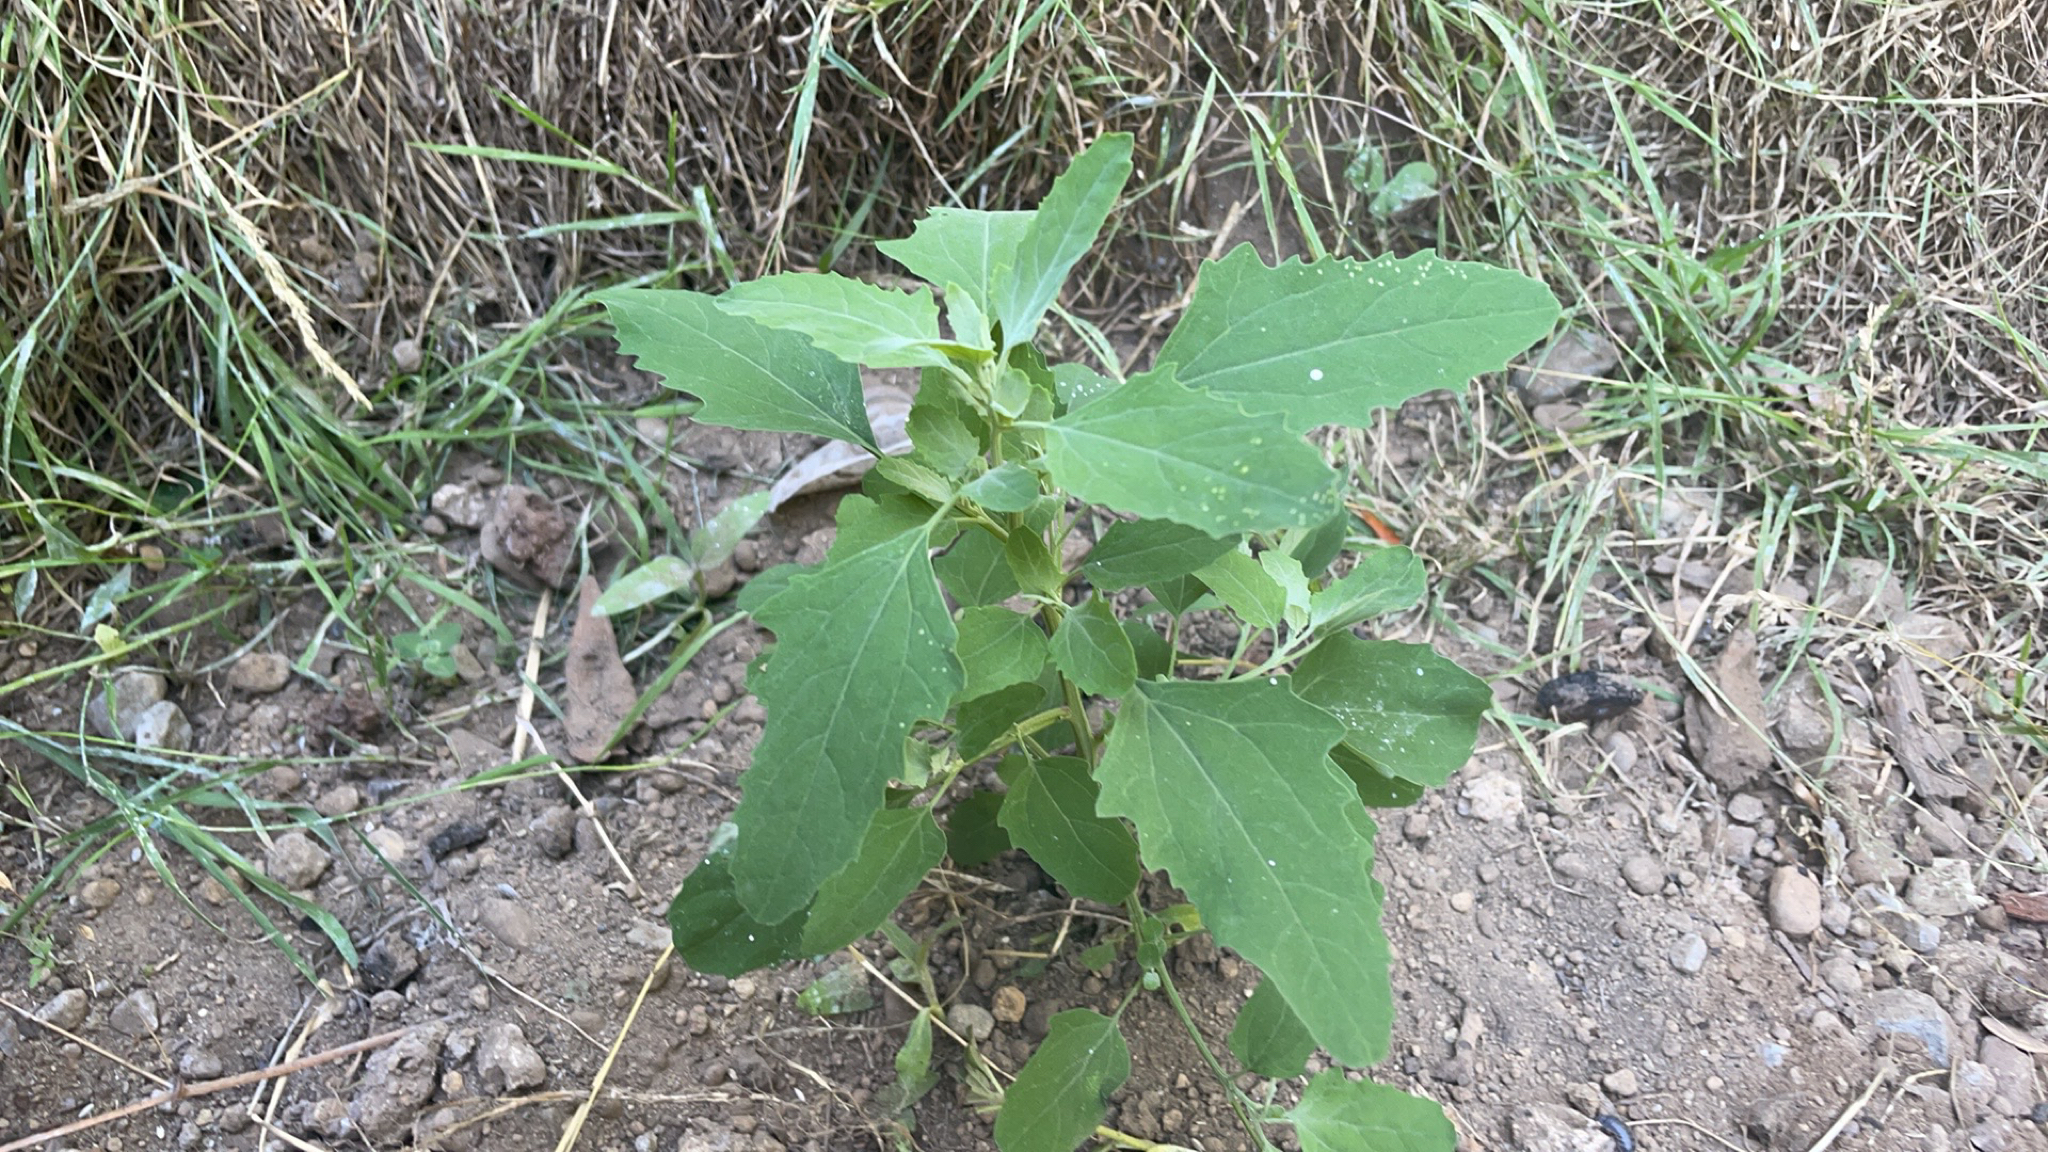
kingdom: Plantae
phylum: Tracheophyta
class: Magnoliopsida
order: Caryophyllales
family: Amaranthaceae
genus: Chenopodium
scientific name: Chenopodium album
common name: Fat-hen
